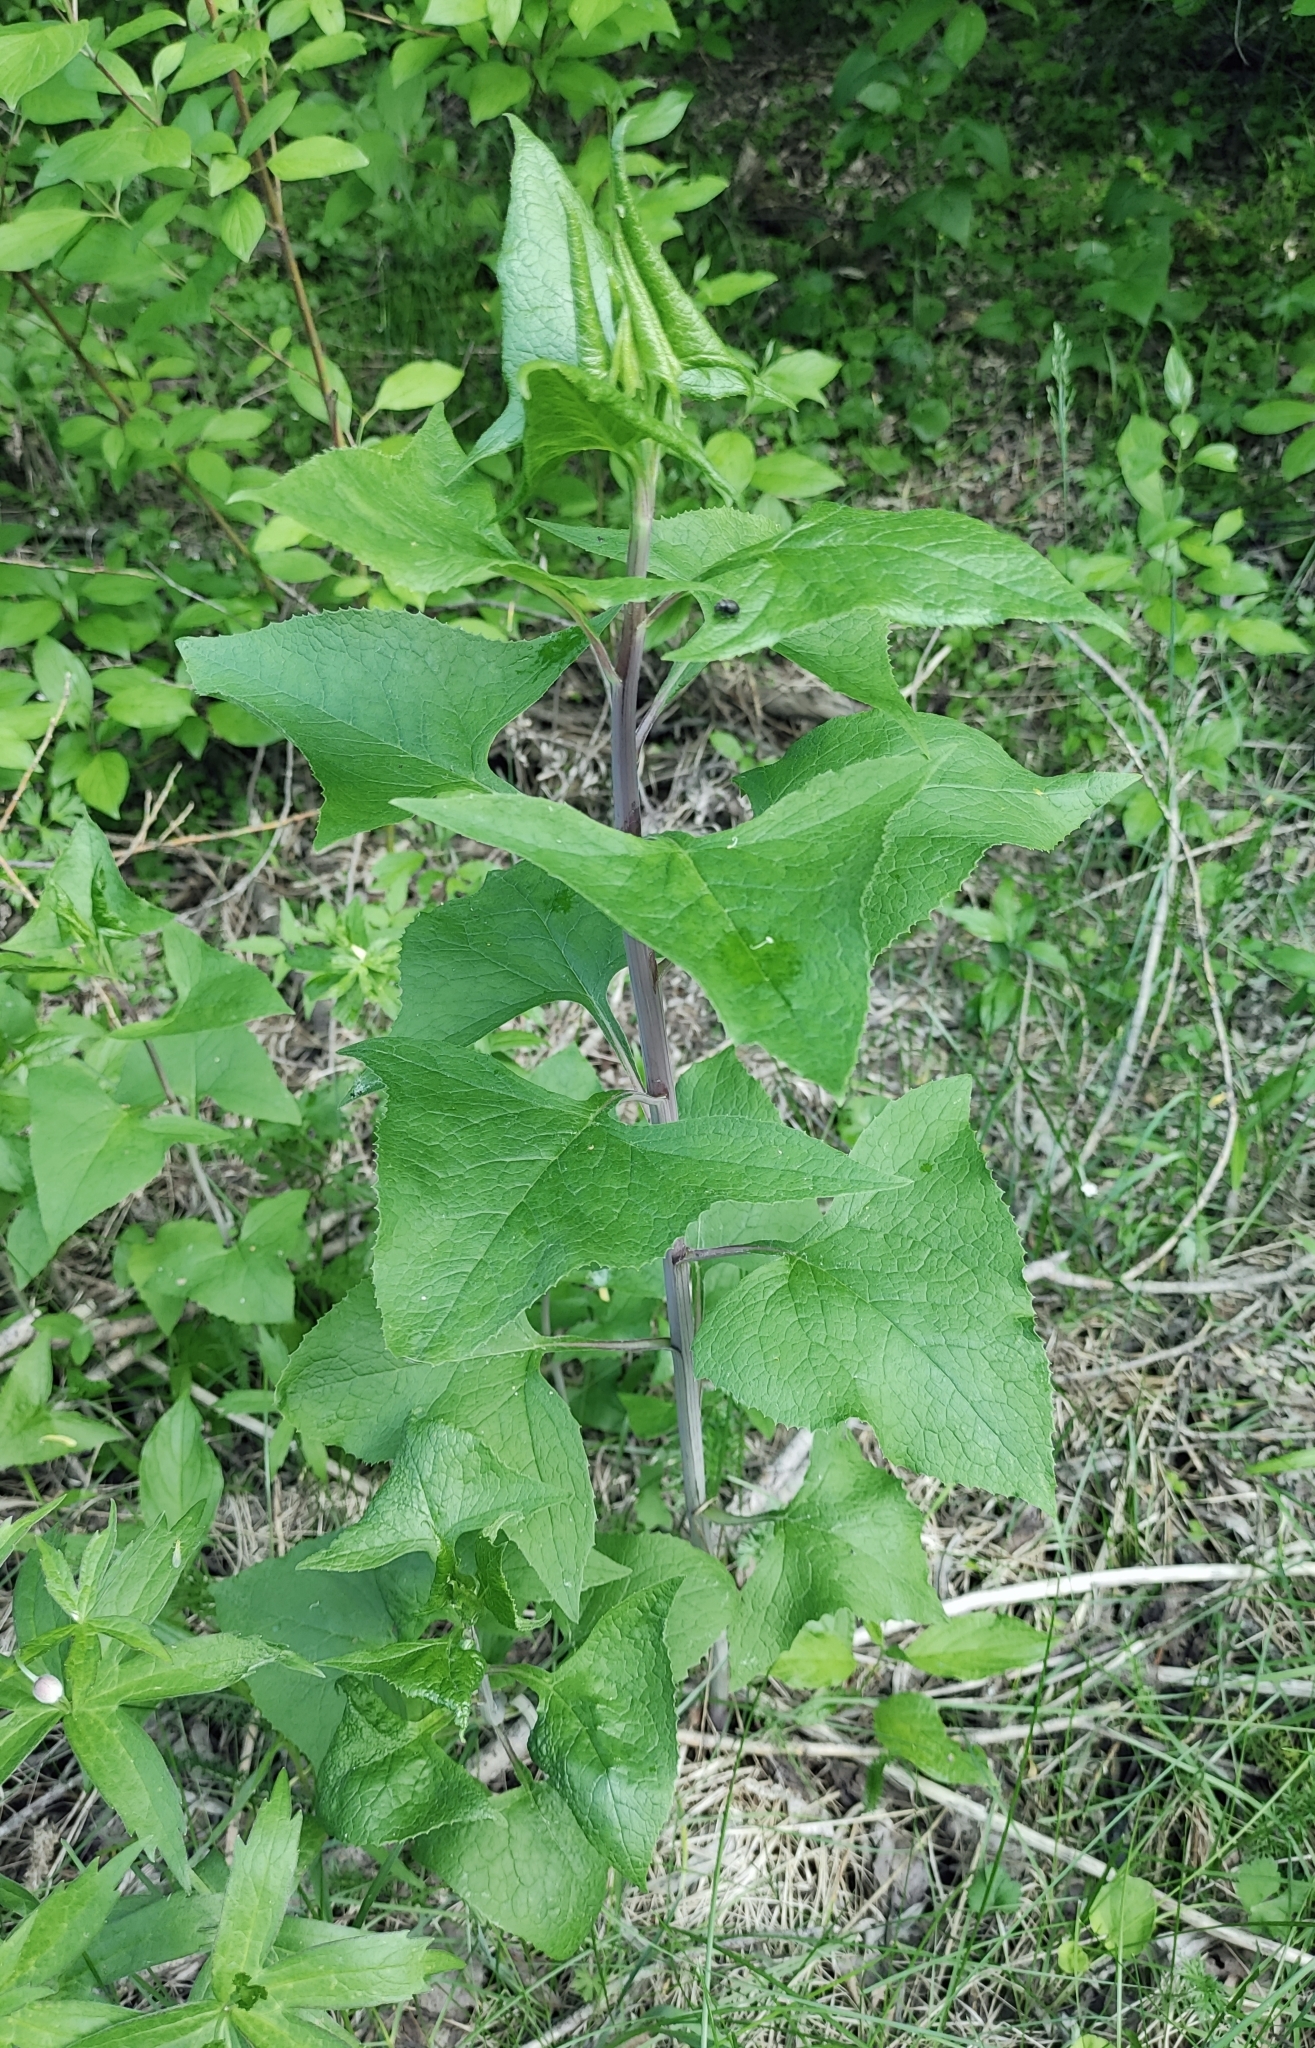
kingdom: Plantae
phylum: Tracheophyta
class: Magnoliopsida
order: Asterales
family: Asteraceae
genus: Parasenecio
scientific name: Parasenecio hastatus
